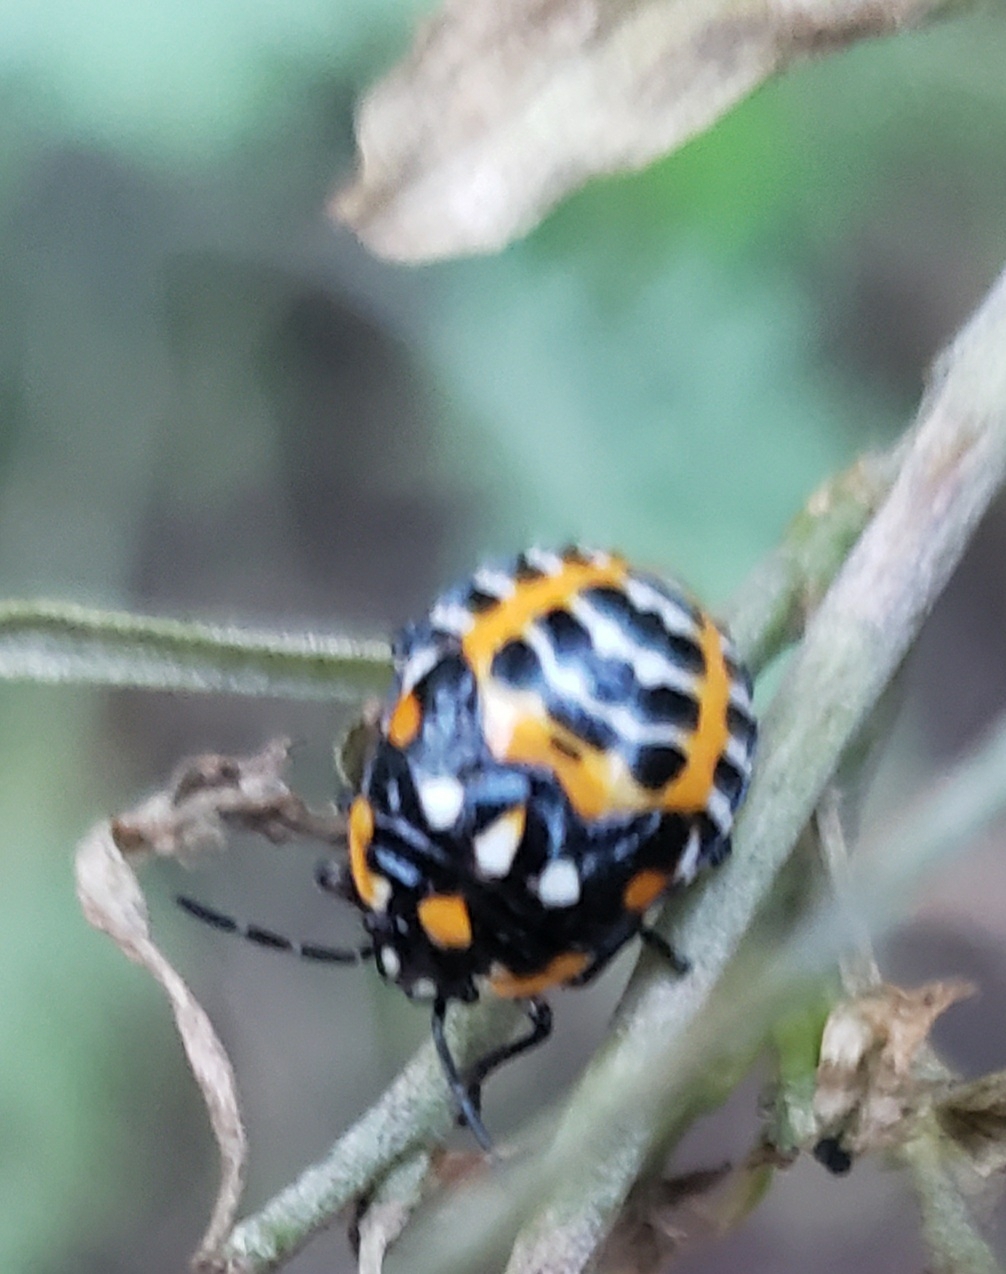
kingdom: Animalia
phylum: Arthropoda
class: Insecta
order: Hemiptera
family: Pentatomidae
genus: Murgantia
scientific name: Murgantia histrionica
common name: Harlequin bug
